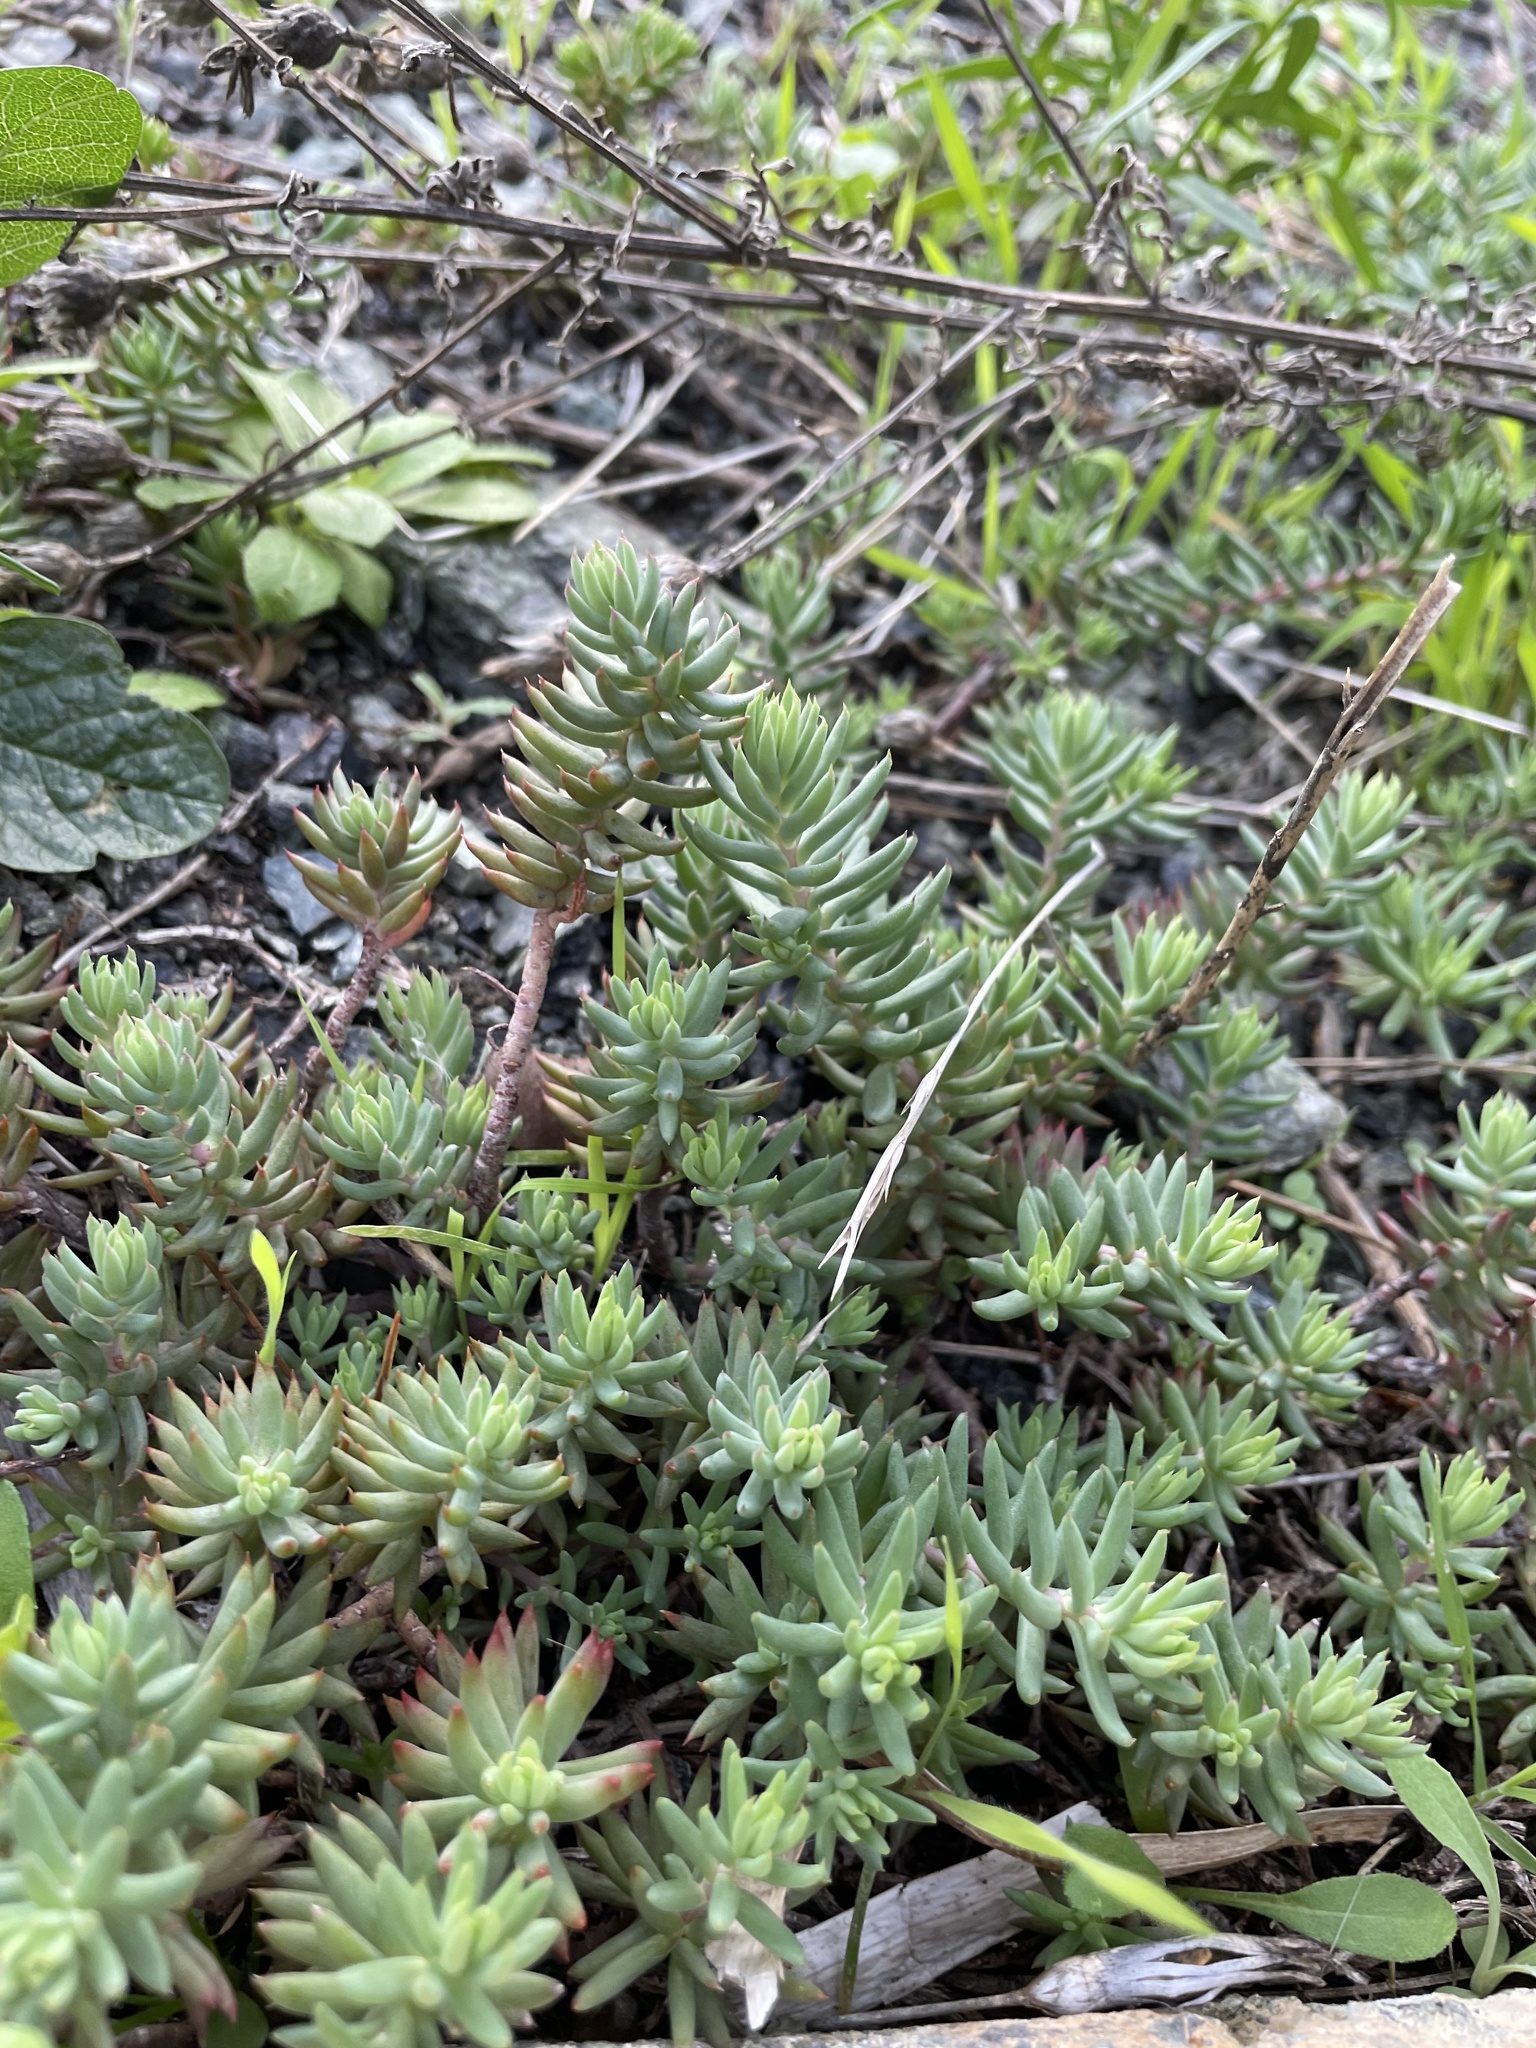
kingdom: Plantae
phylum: Tracheophyta
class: Magnoliopsida
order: Saxifragales
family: Crassulaceae
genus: Petrosedum
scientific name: Petrosedum rupestre
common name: Jenny's stonecrop
